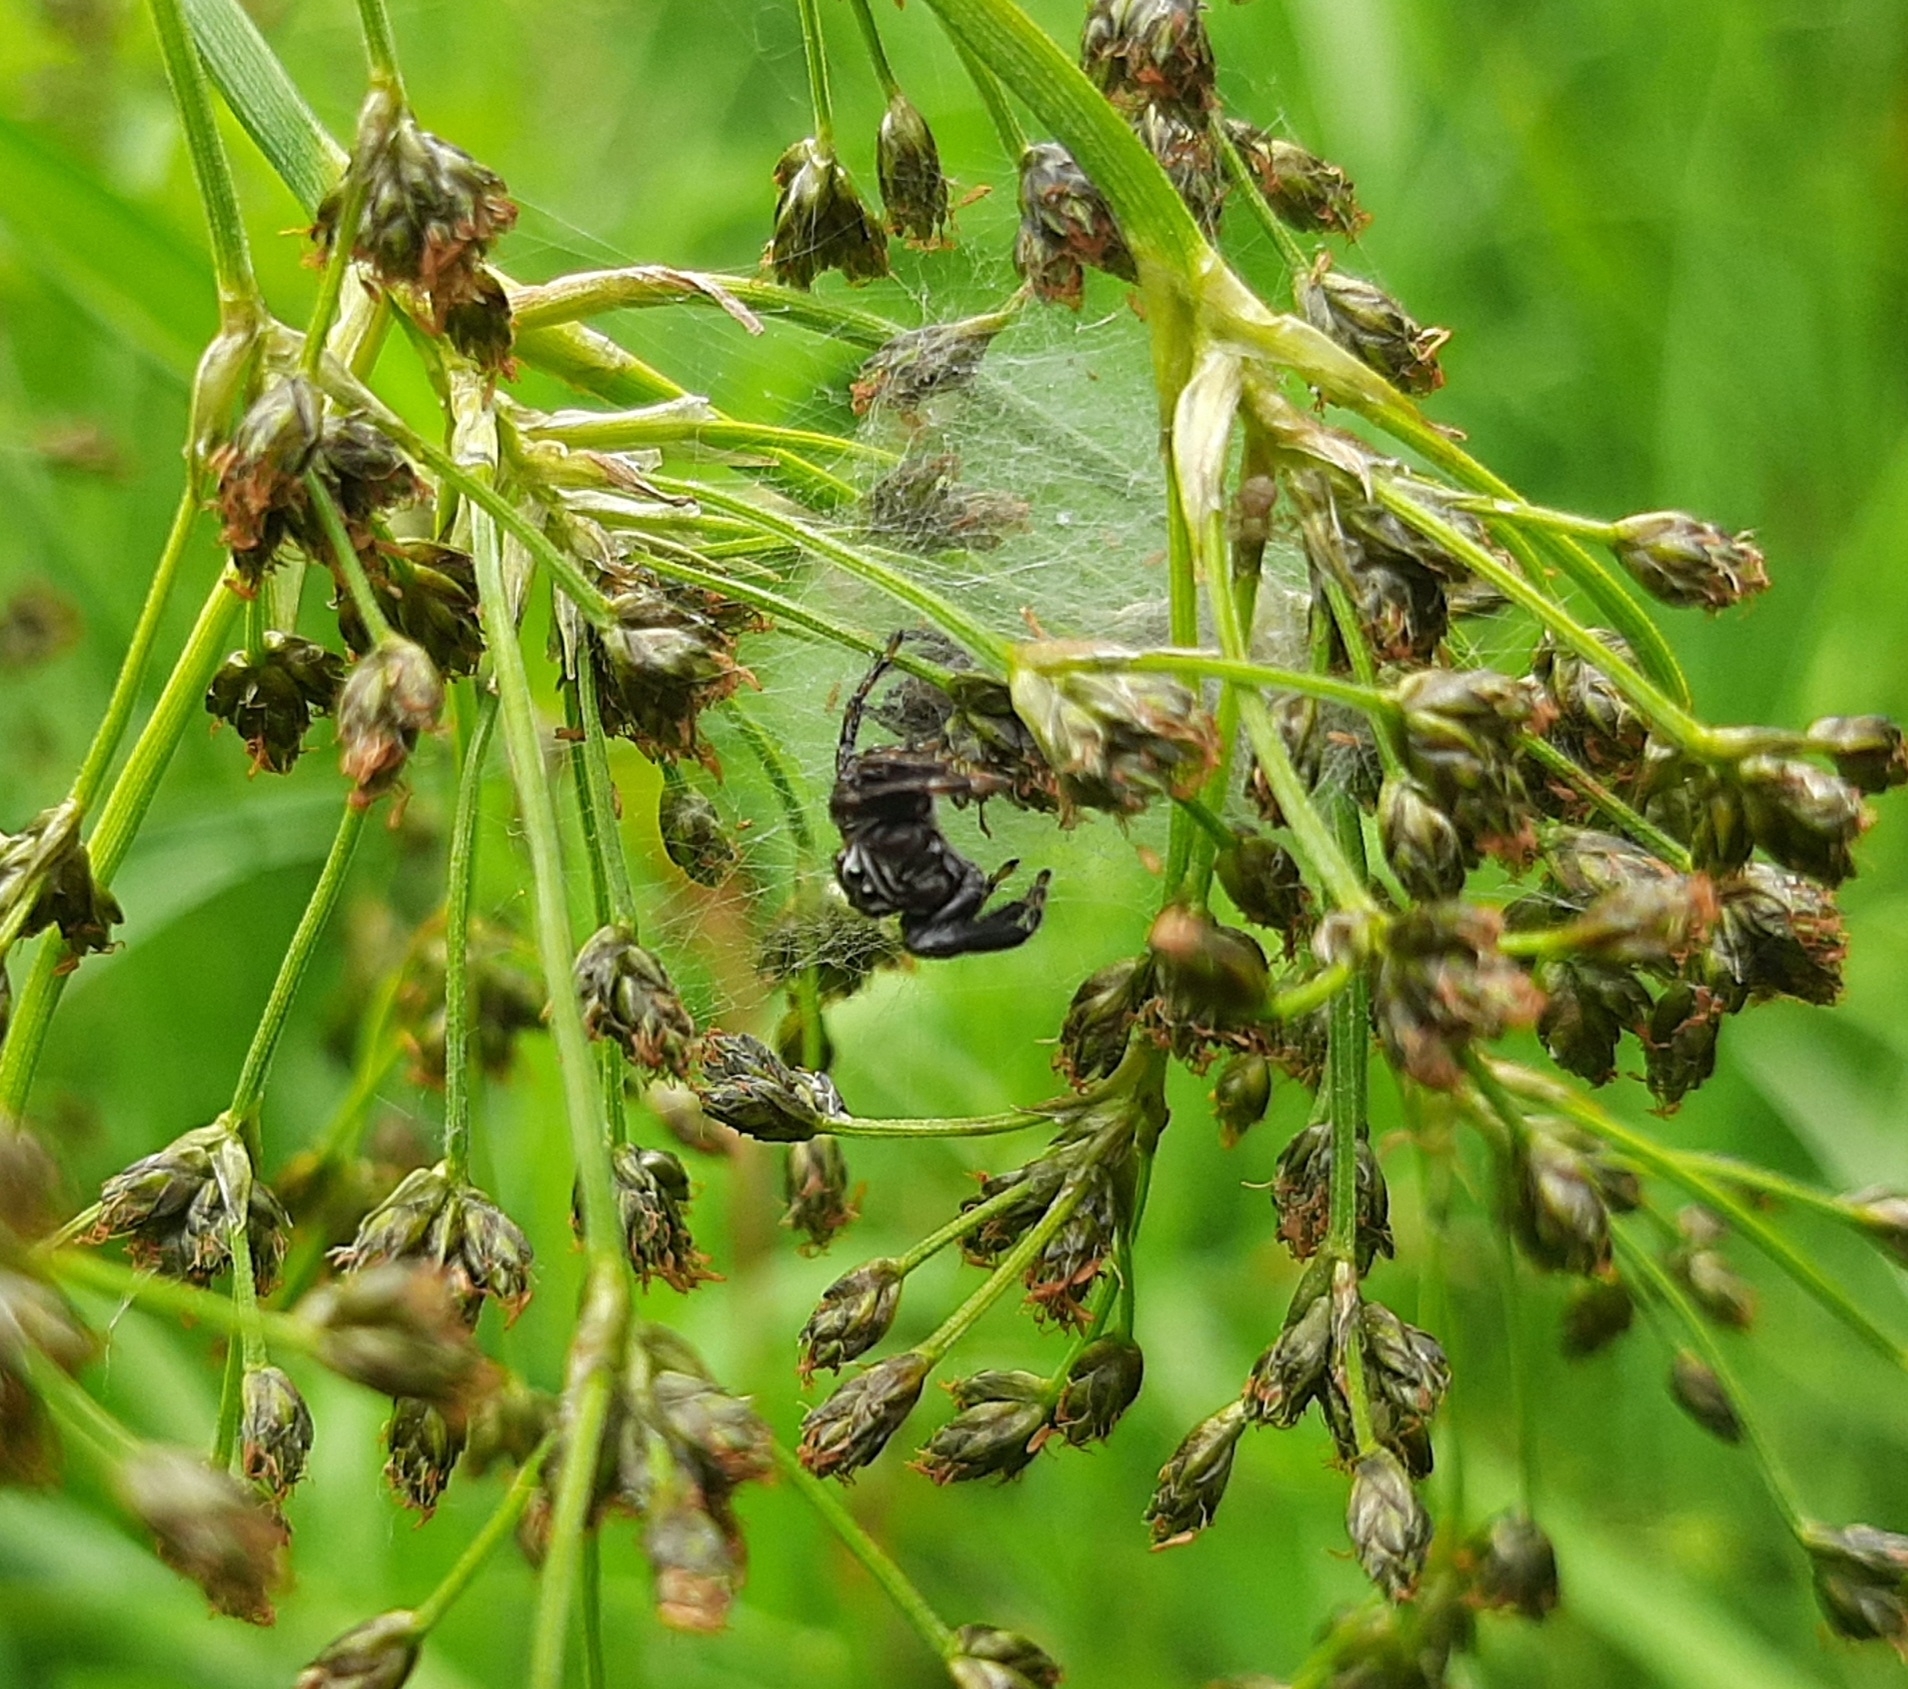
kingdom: Animalia
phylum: Arthropoda
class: Arachnida
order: Araneae
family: Salticidae
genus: Evarcha
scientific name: Evarcha arcuata
